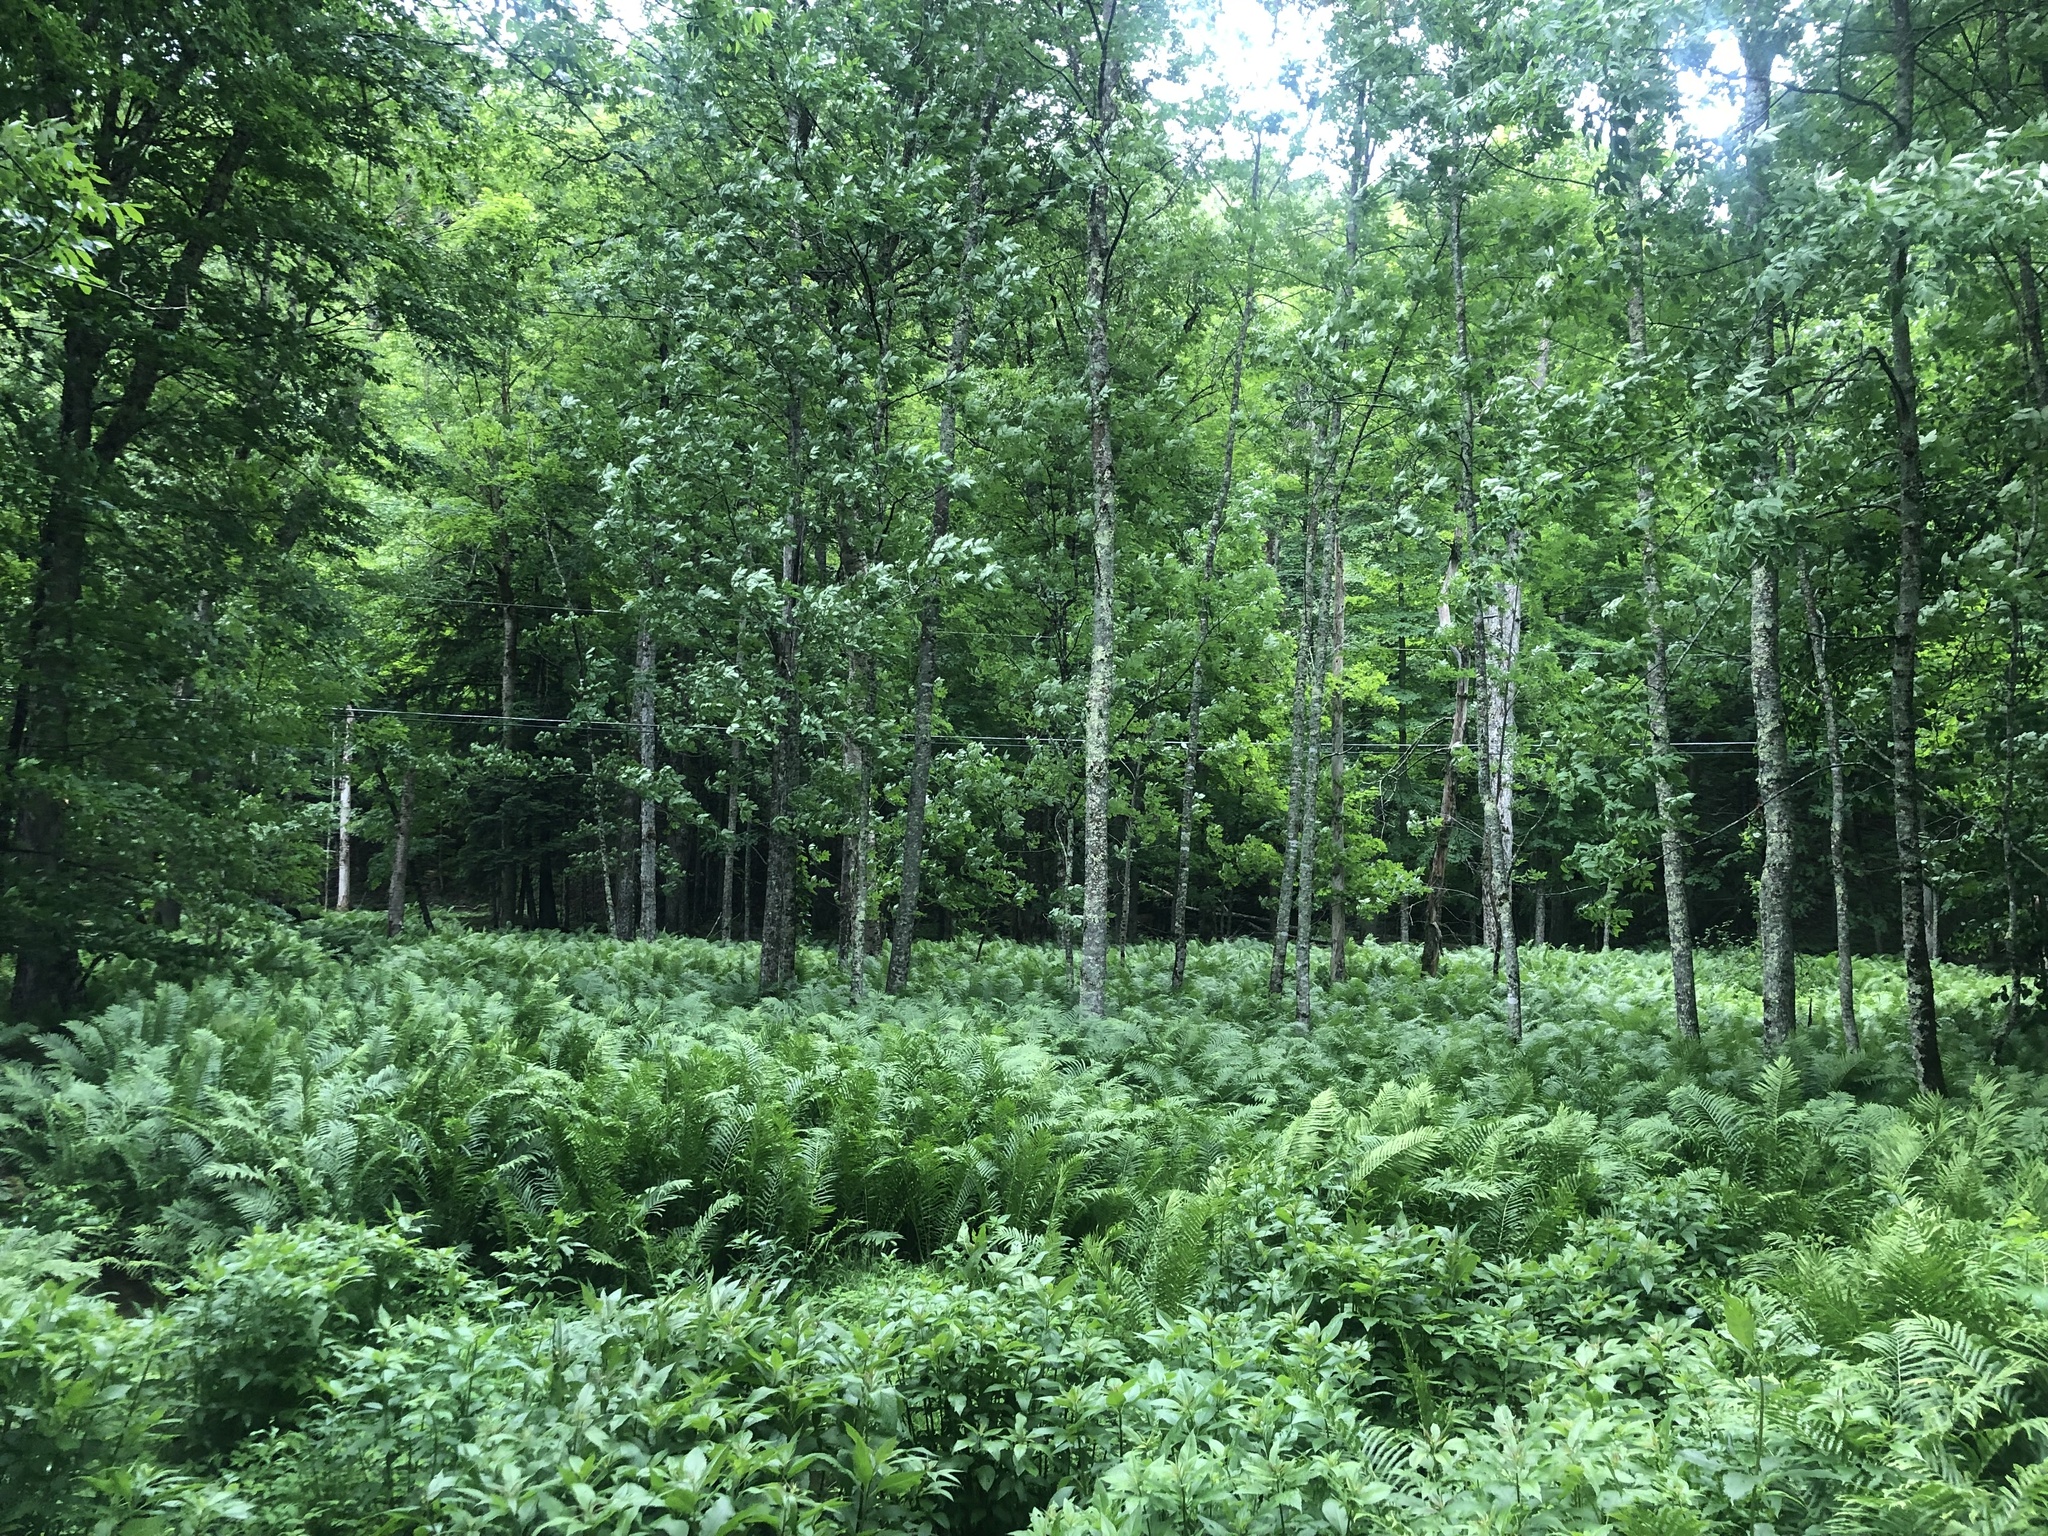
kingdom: Plantae
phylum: Tracheophyta
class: Polypodiopsida
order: Polypodiales
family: Onocleaceae
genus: Matteuccia
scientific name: Matteuccia struthiopteris
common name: Ostrich fern
